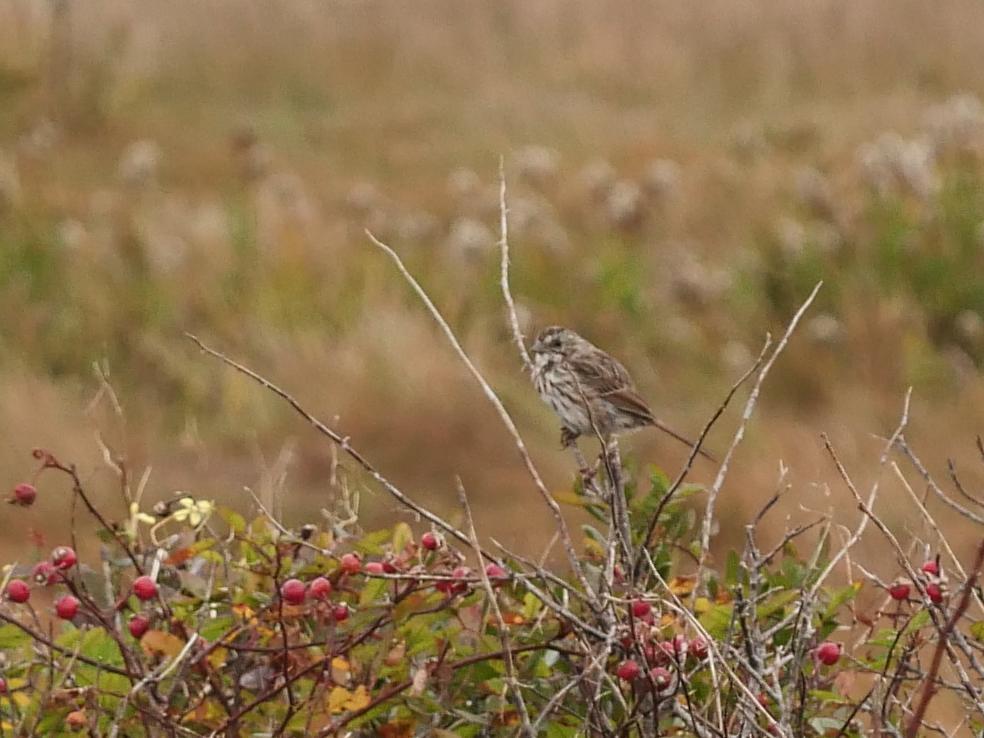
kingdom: Animalia
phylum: Chordata
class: Aves
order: Passeriformes
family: Passerellidae
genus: Melospiza
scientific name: Melospiza melodia
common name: Song sparrow
